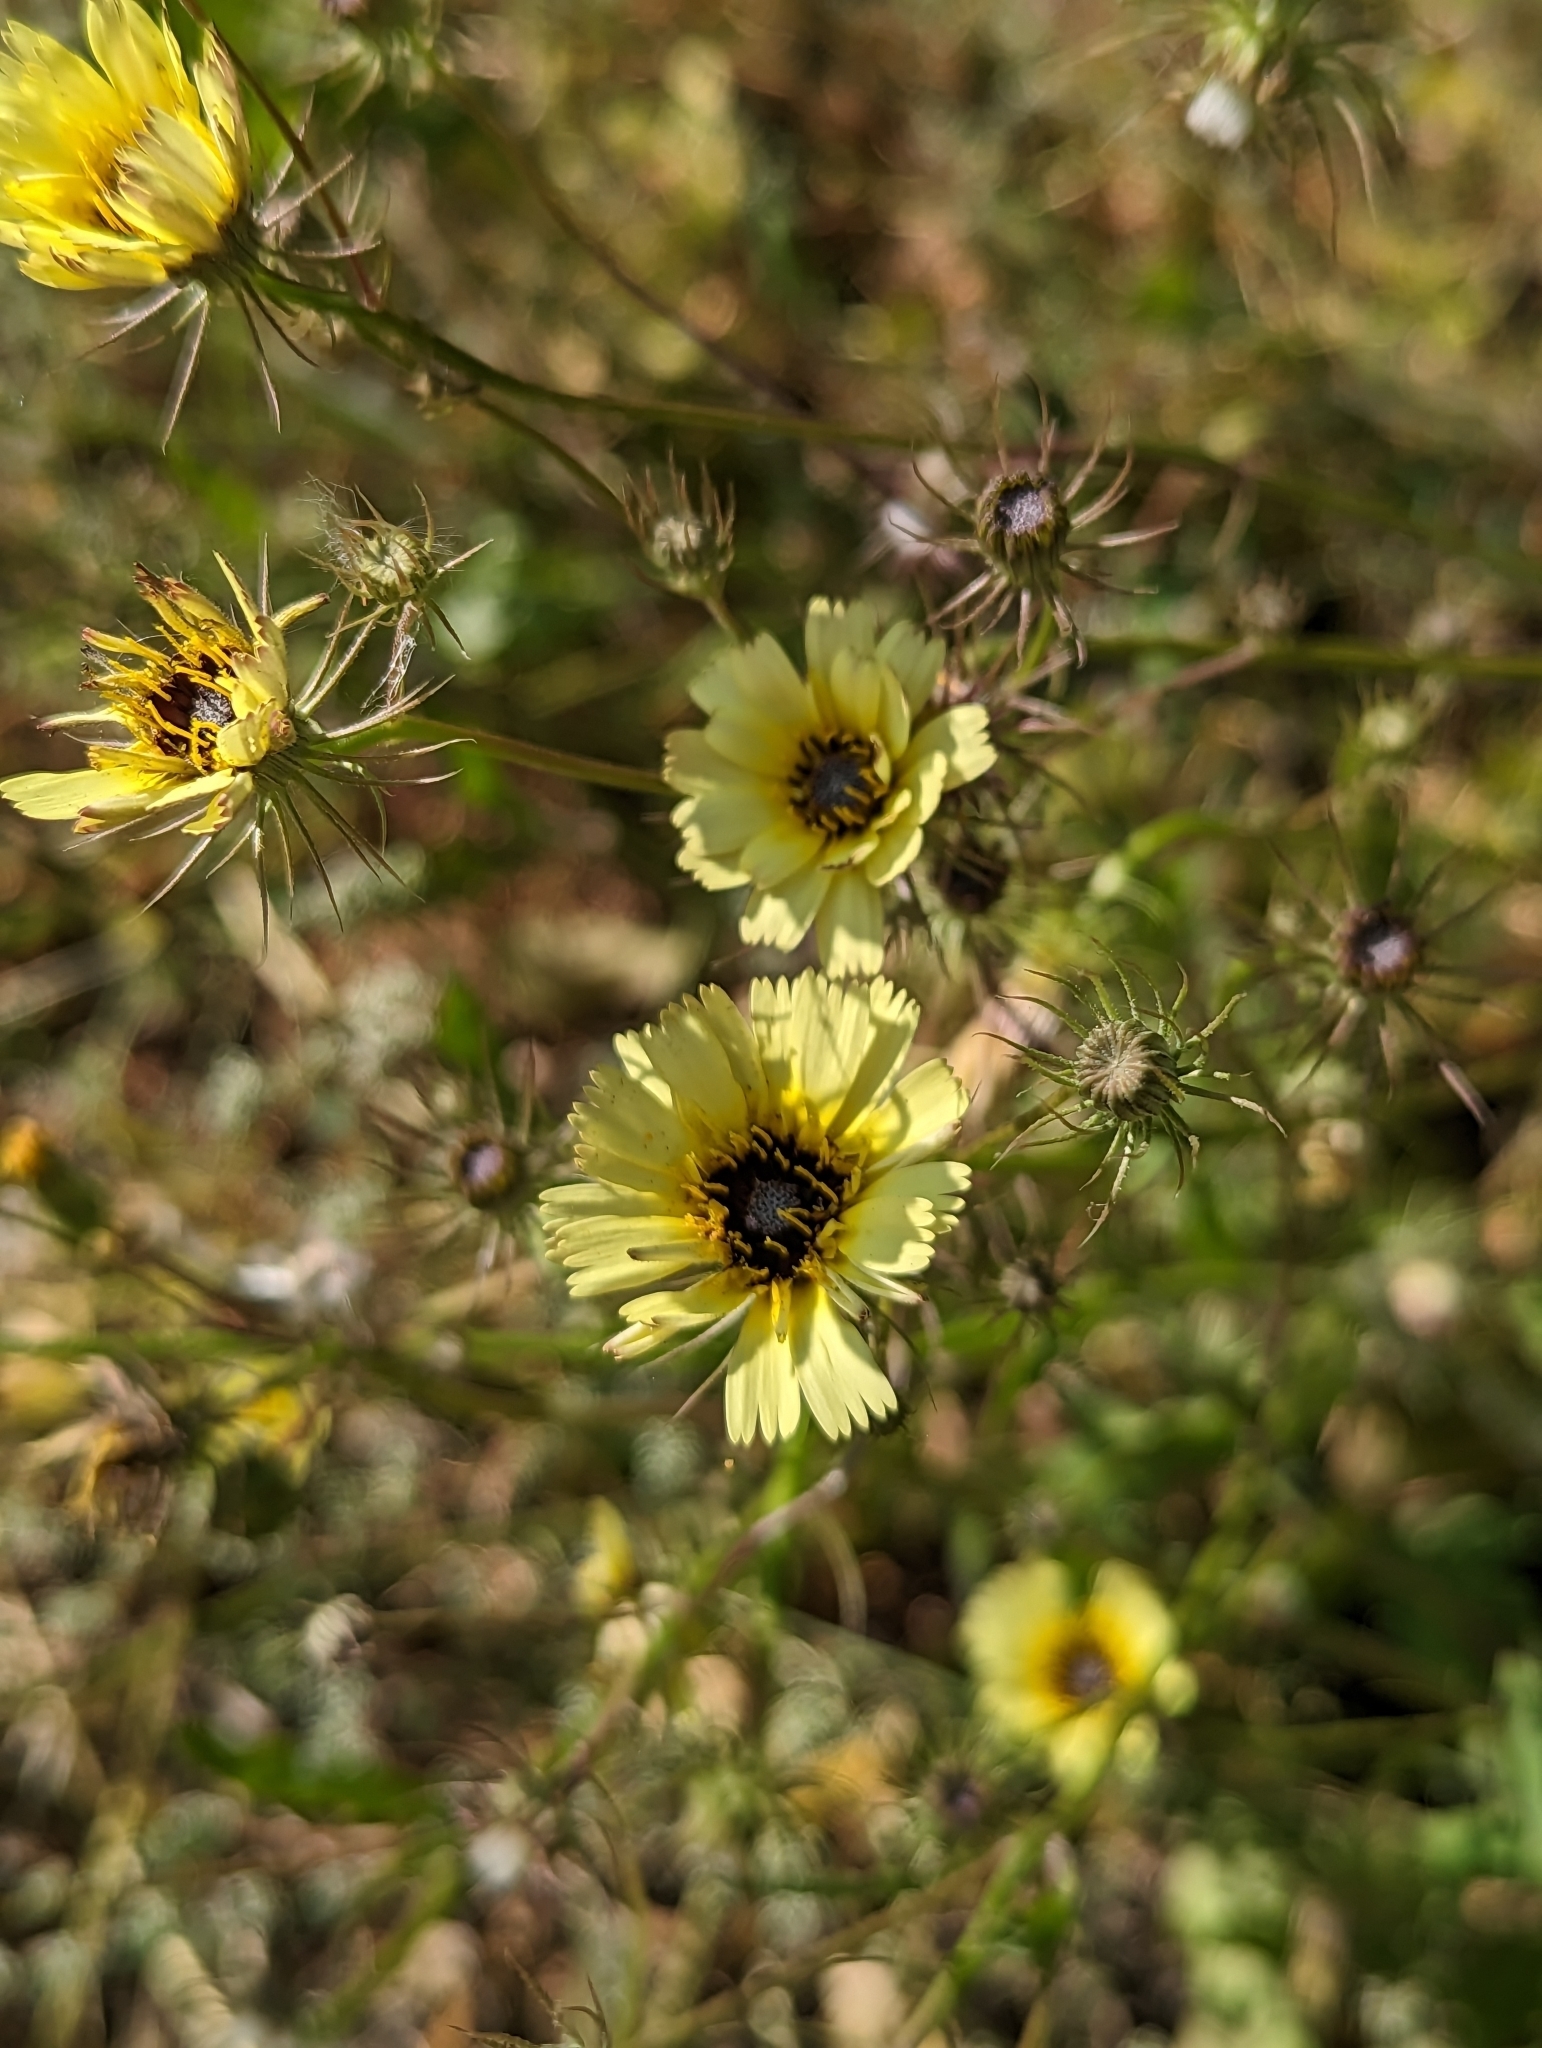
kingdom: Plantae
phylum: Tracheophyta
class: Magnoliopsida
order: Asterales
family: Asteraceae
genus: Tolpis
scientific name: Tolpis barbata
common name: Yellow hawkweed
